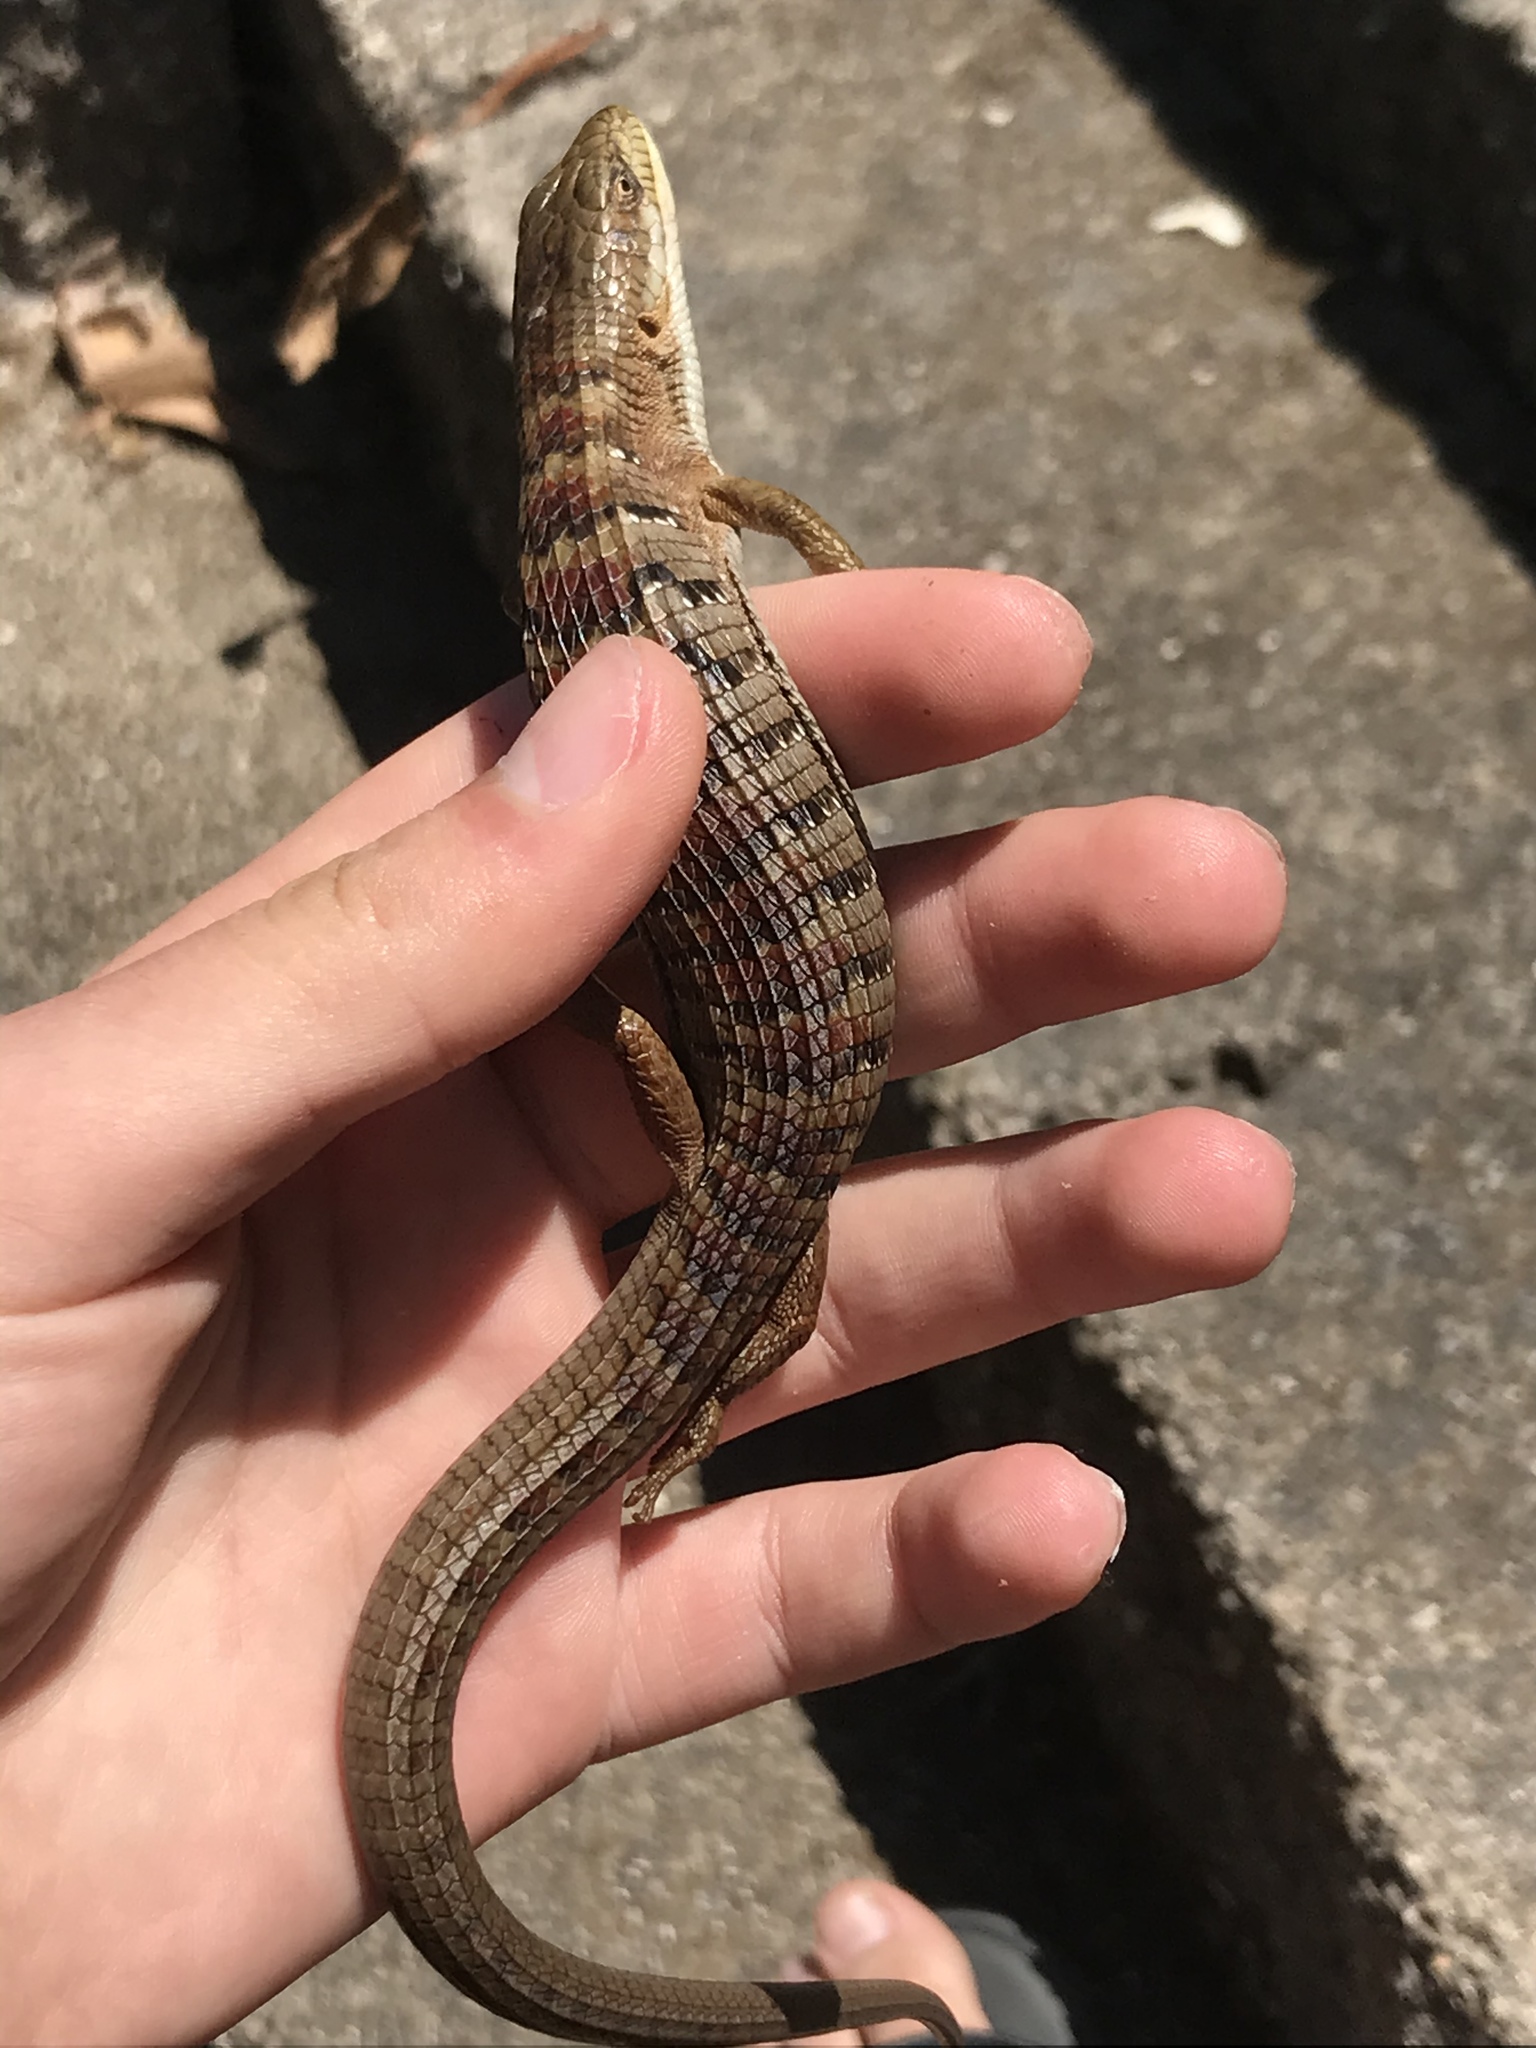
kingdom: Animalia
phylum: Chordata
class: Squamata
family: Anguidae
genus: Elgaria
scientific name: Elgaria multicarinata
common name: Southern alligator lizard
